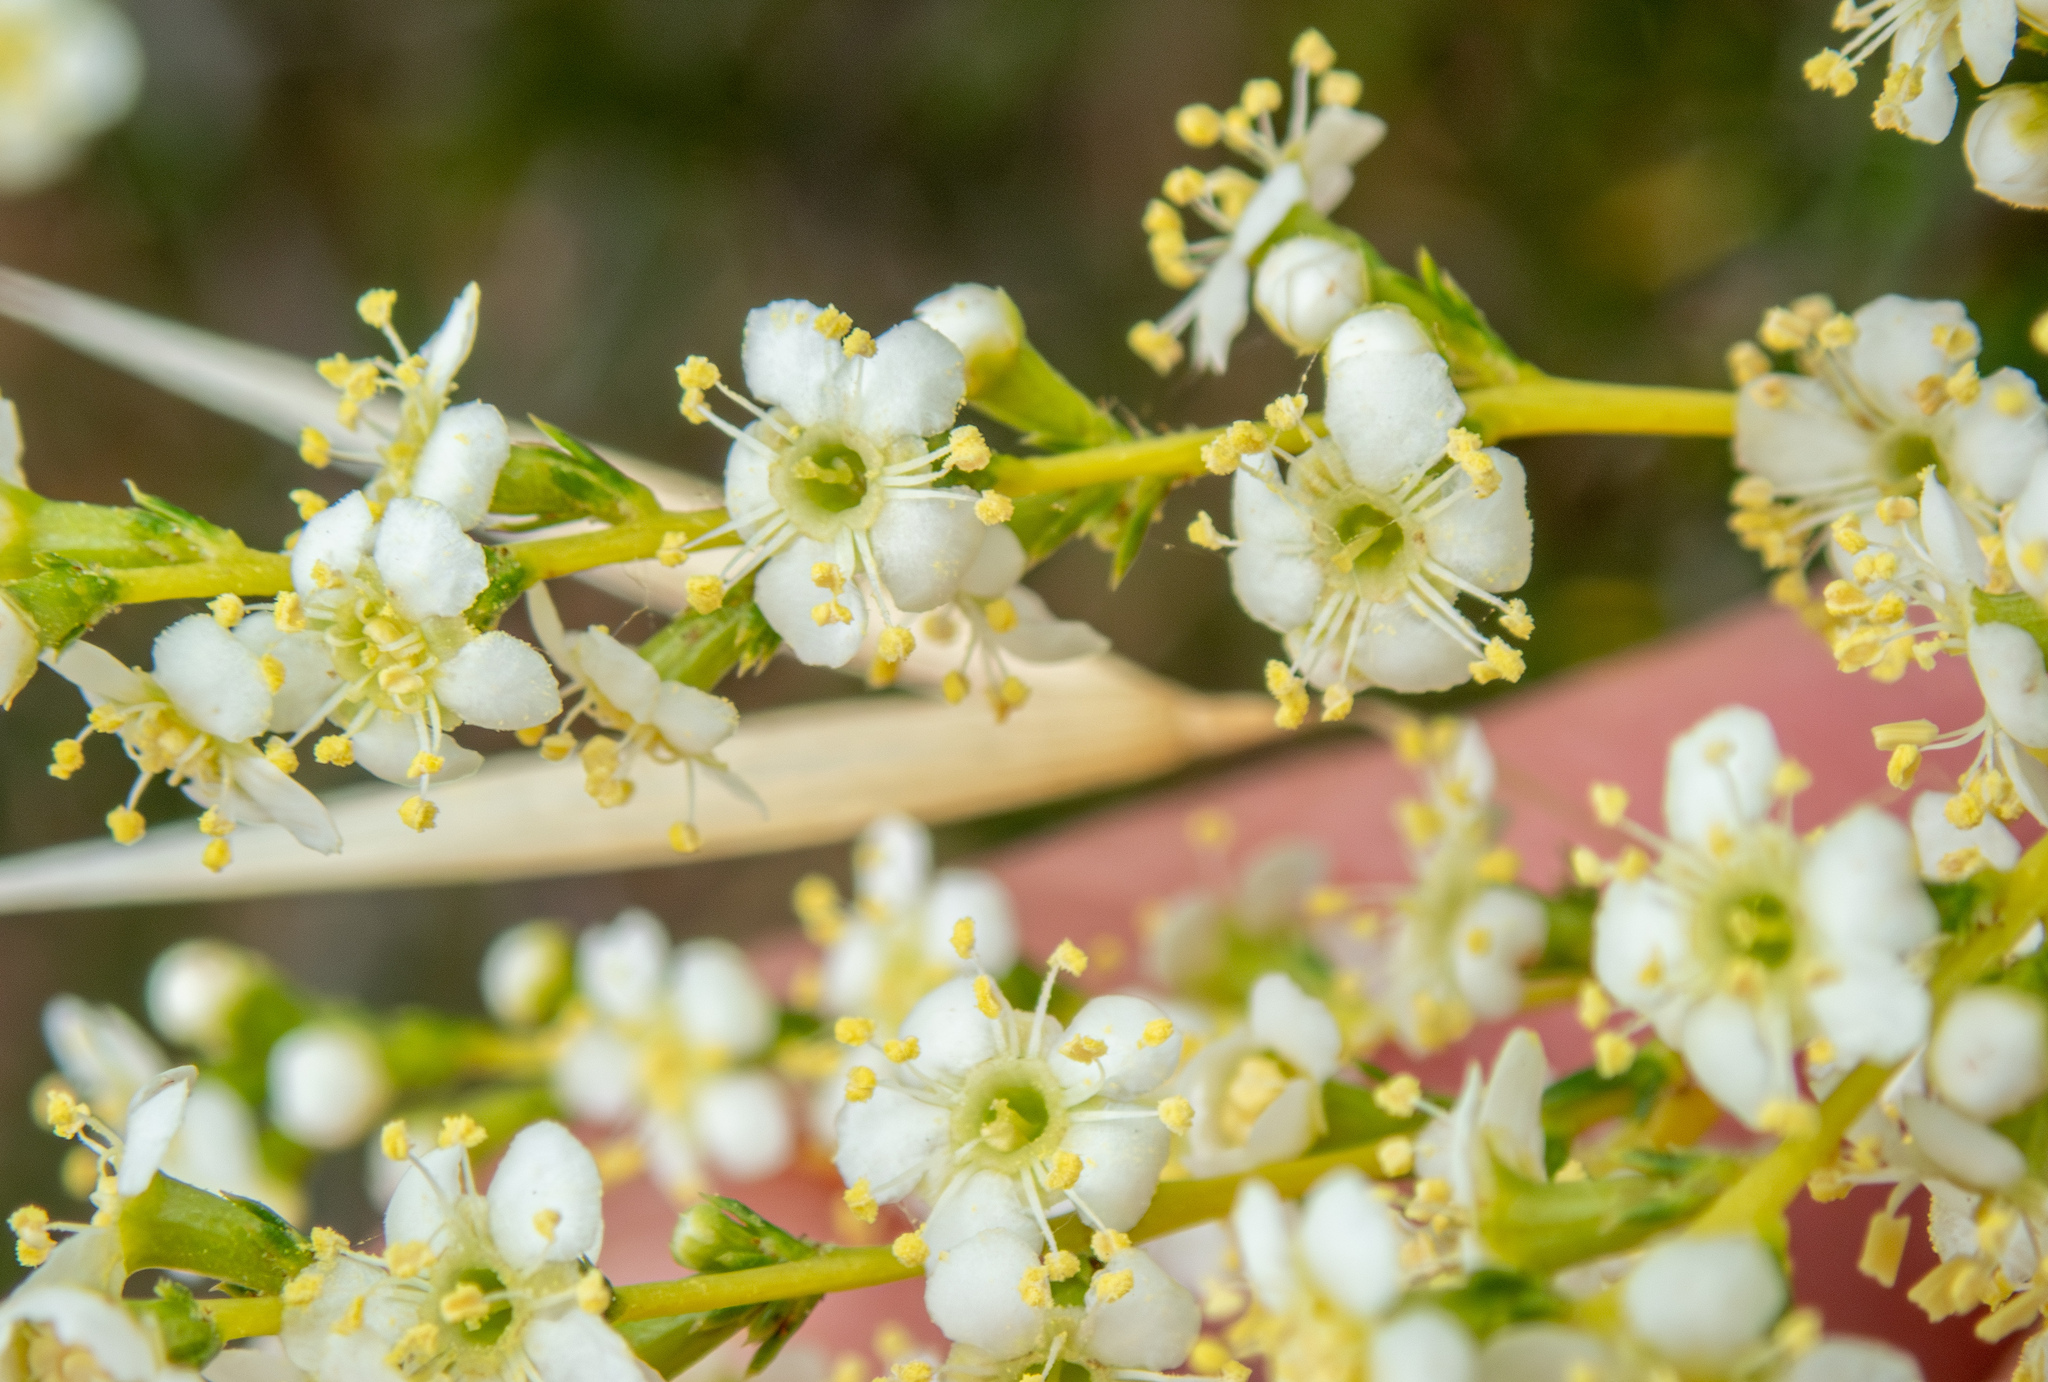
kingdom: Plantae
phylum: Tracheophyta
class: Magnoliopsida
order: Rosales
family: Rosaceae
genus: Adenostoma
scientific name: Adenostoma fasciculatum
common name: Chamise
